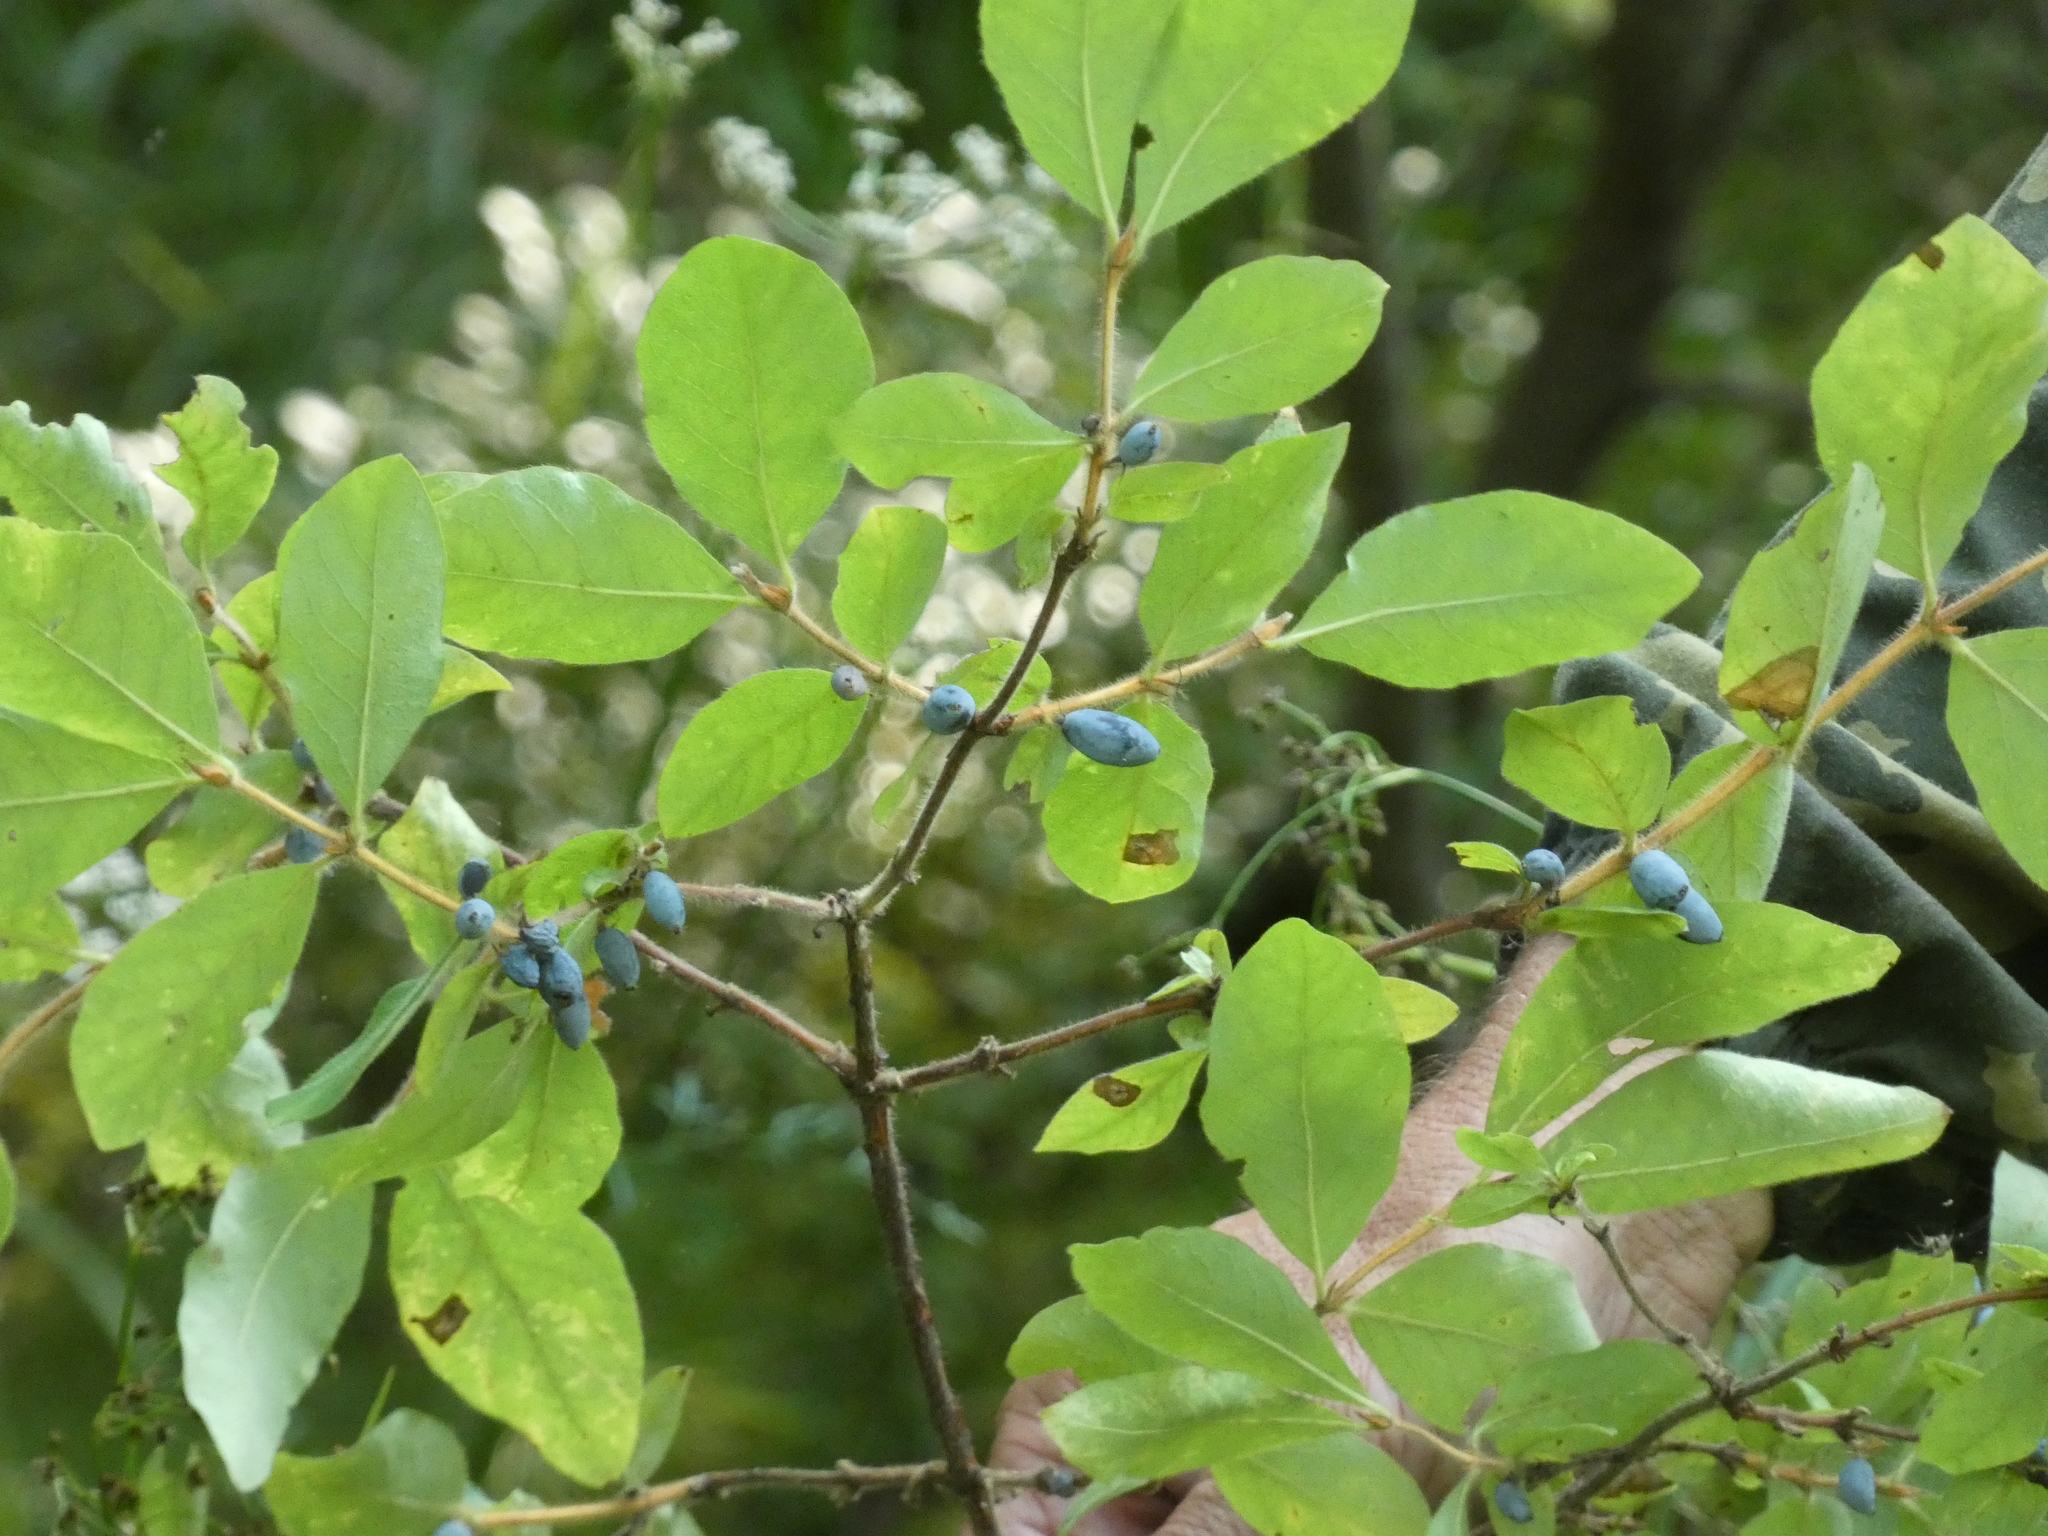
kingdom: Plantae
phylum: Tracheophyta
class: Magnoliopsida
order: Dipsacales
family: Caprifoliaceae
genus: Lonicera
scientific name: Lonicera caerulea
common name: Blue honeysuckle
